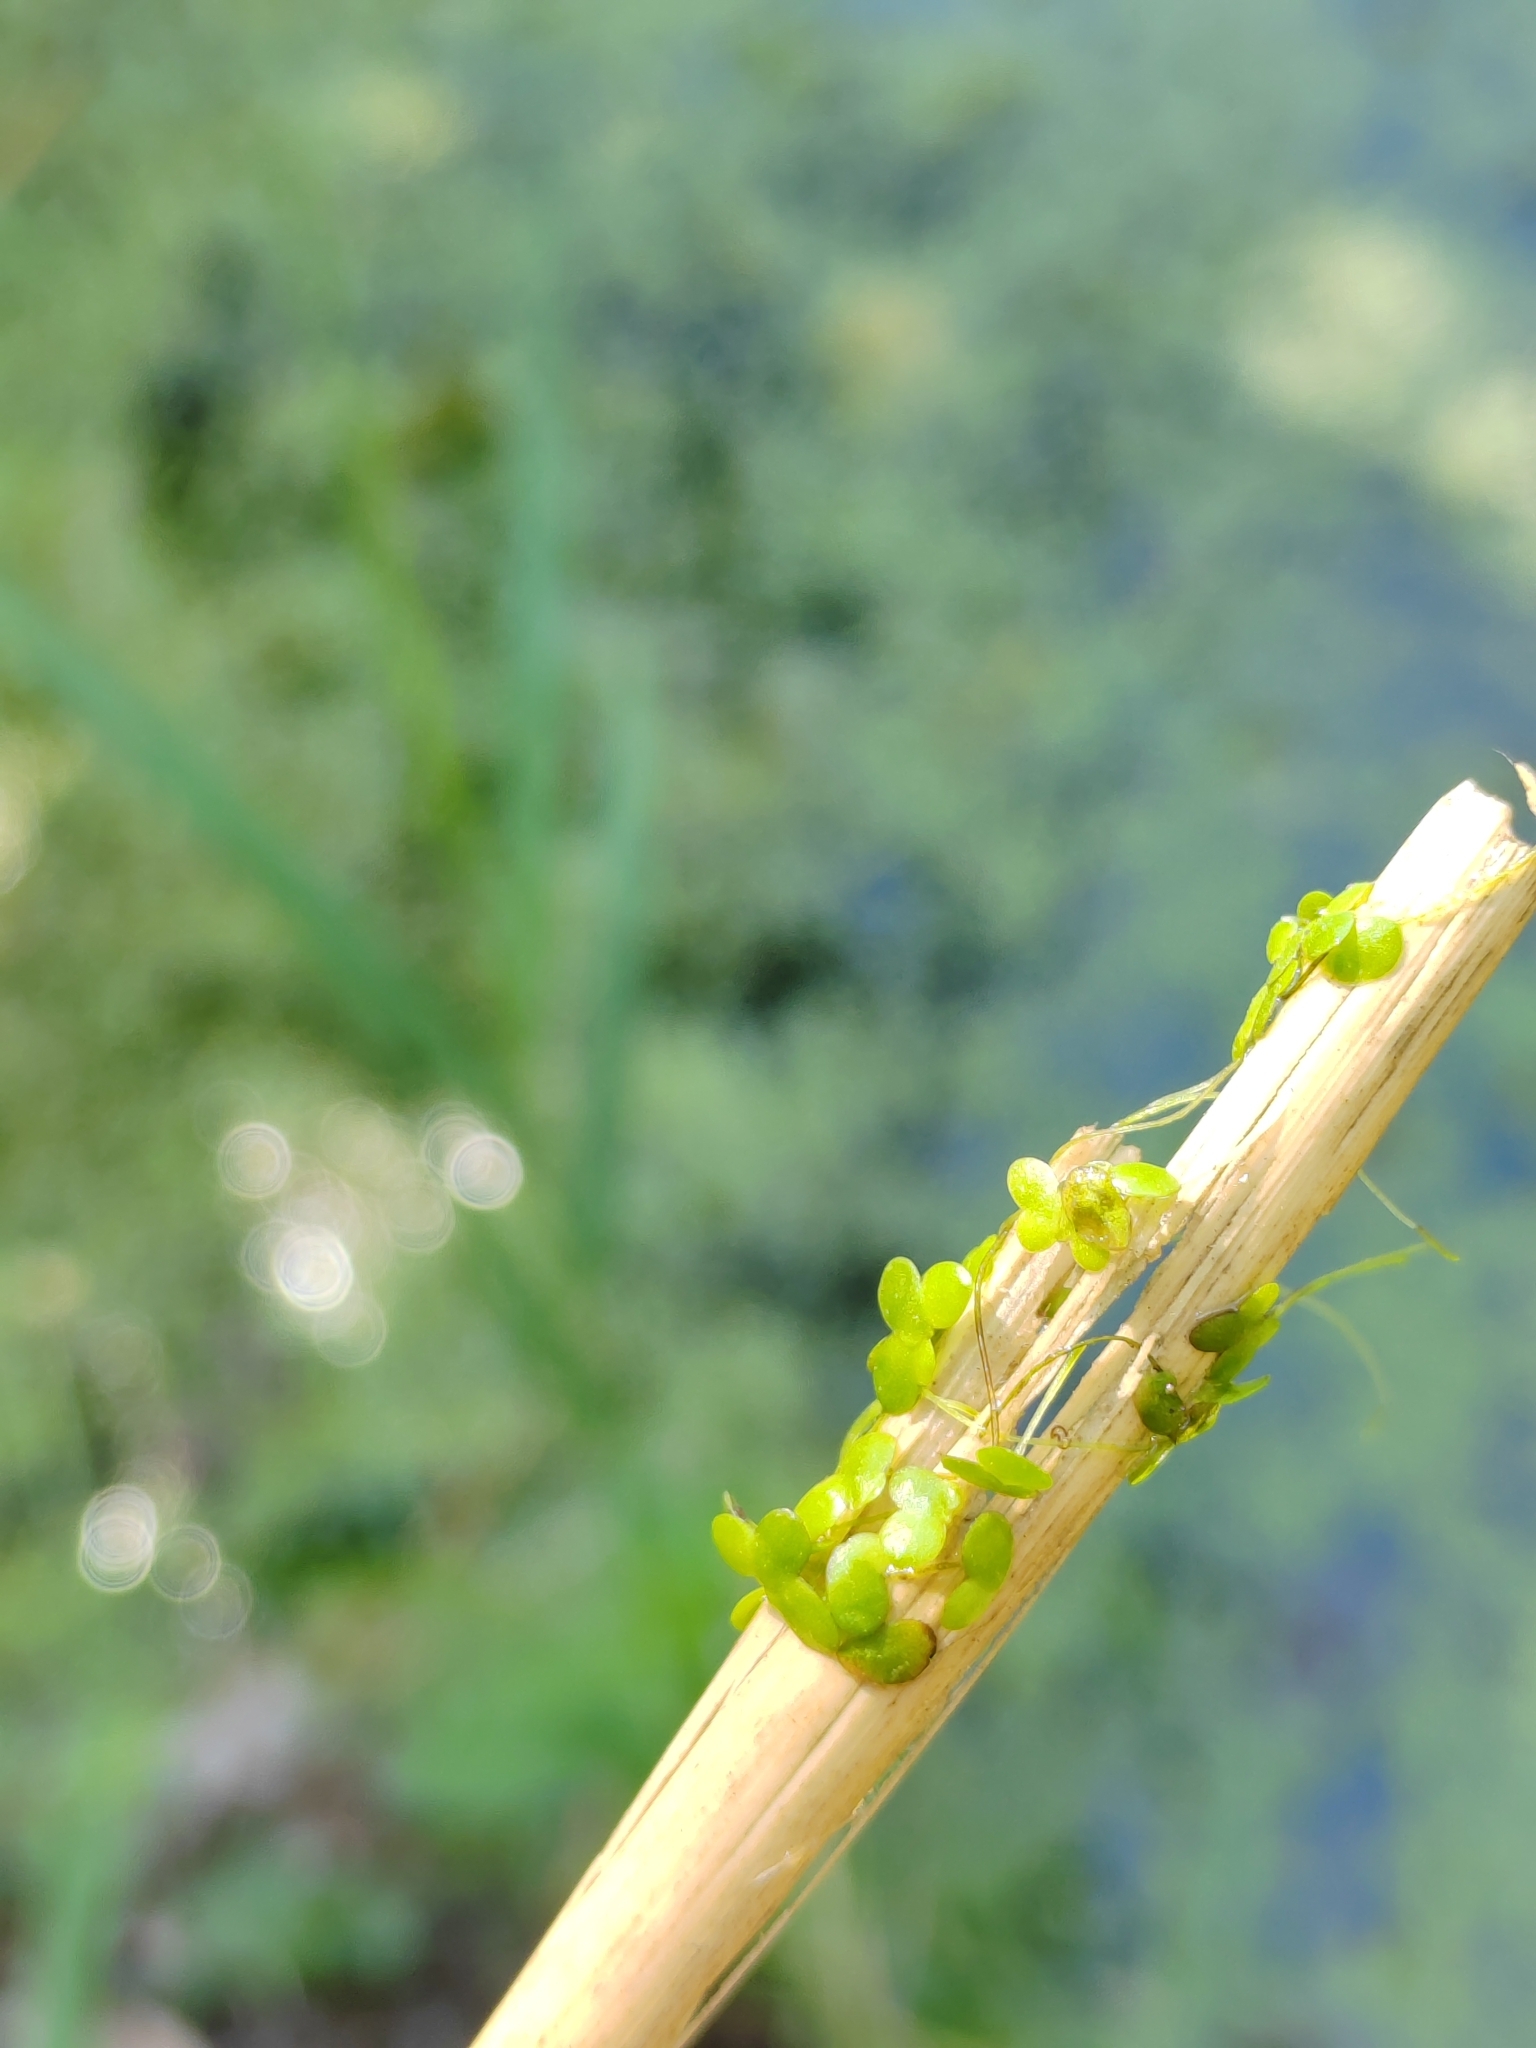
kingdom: Plantae
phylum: Tracheophyta
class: Liliopsida
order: Alismatales
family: Araceae
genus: Lemna
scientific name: Lemna minor
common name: Common duckweed
